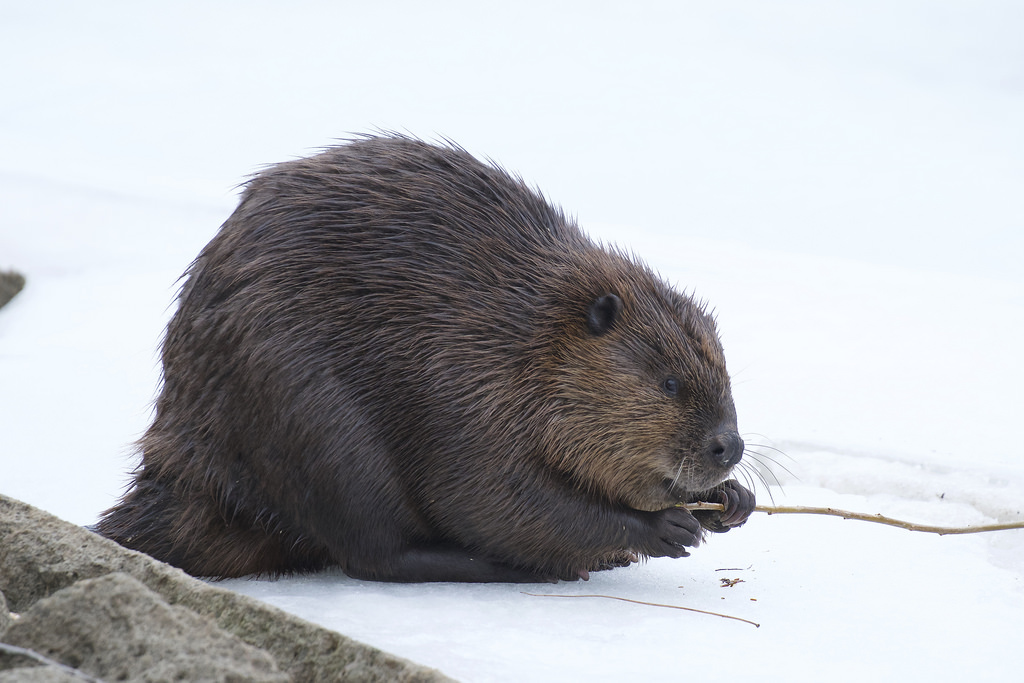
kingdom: Animalia
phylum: Chordata
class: Mammalia
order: Rodentia
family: Castoridae
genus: Castor
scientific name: Castor canadensis
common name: American beaver
